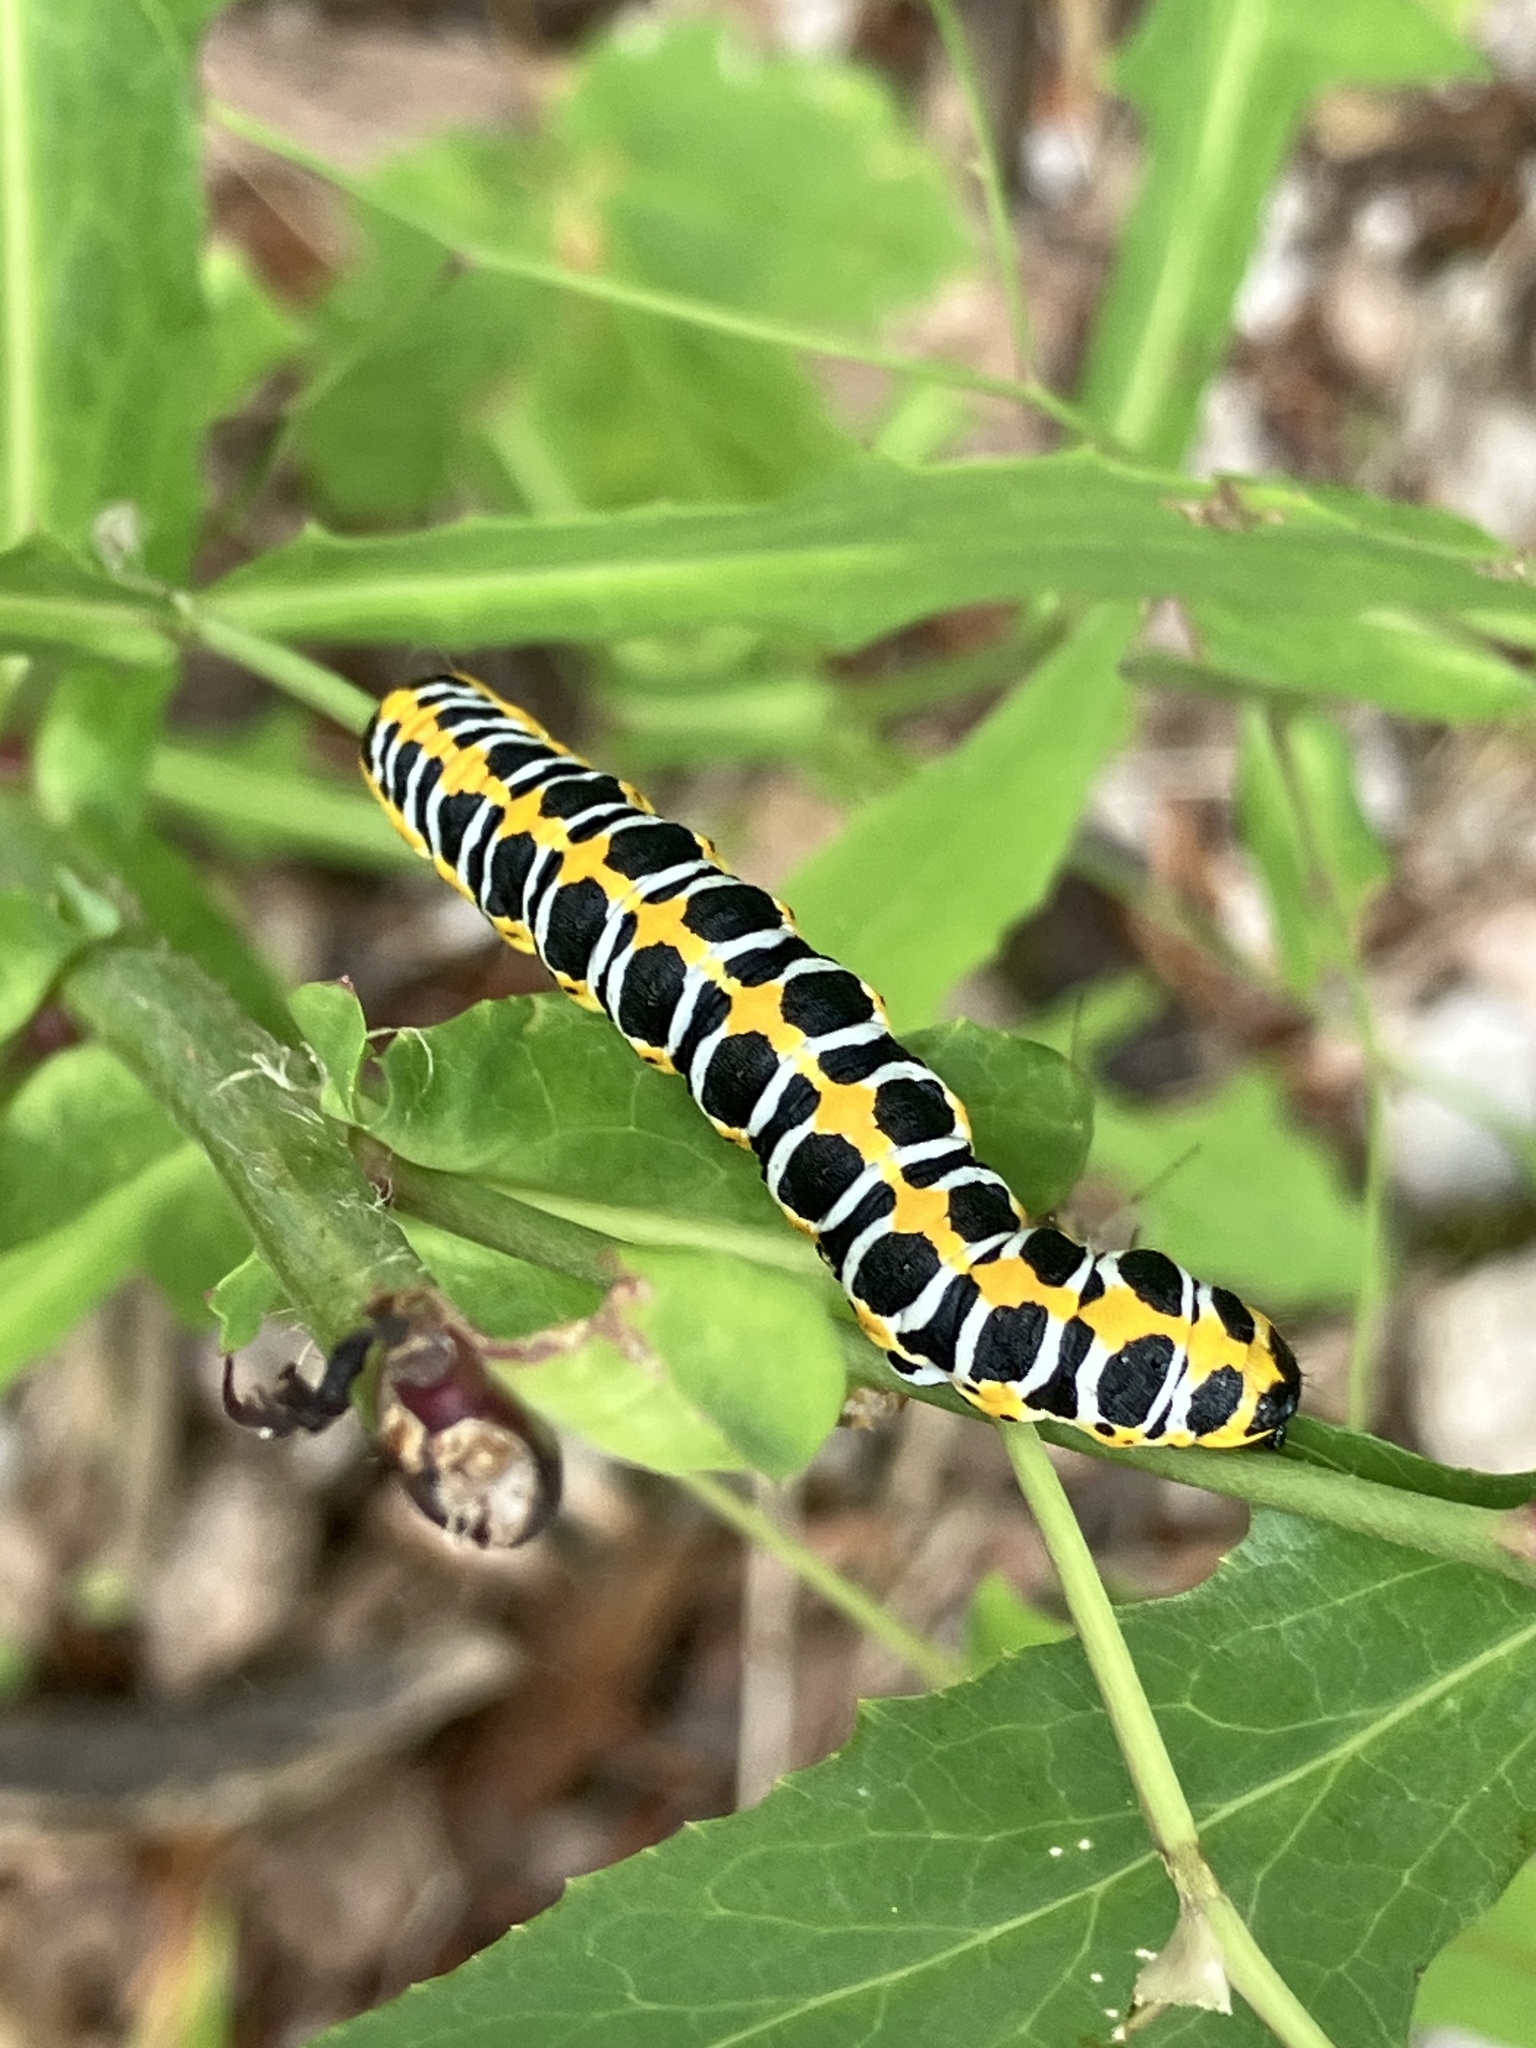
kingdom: Animalia
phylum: Arthropoda
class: Insecta
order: Lepidoptera
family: Noctuidae
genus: Cucullia
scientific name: Cucullia lactucae
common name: Lettuce shark
